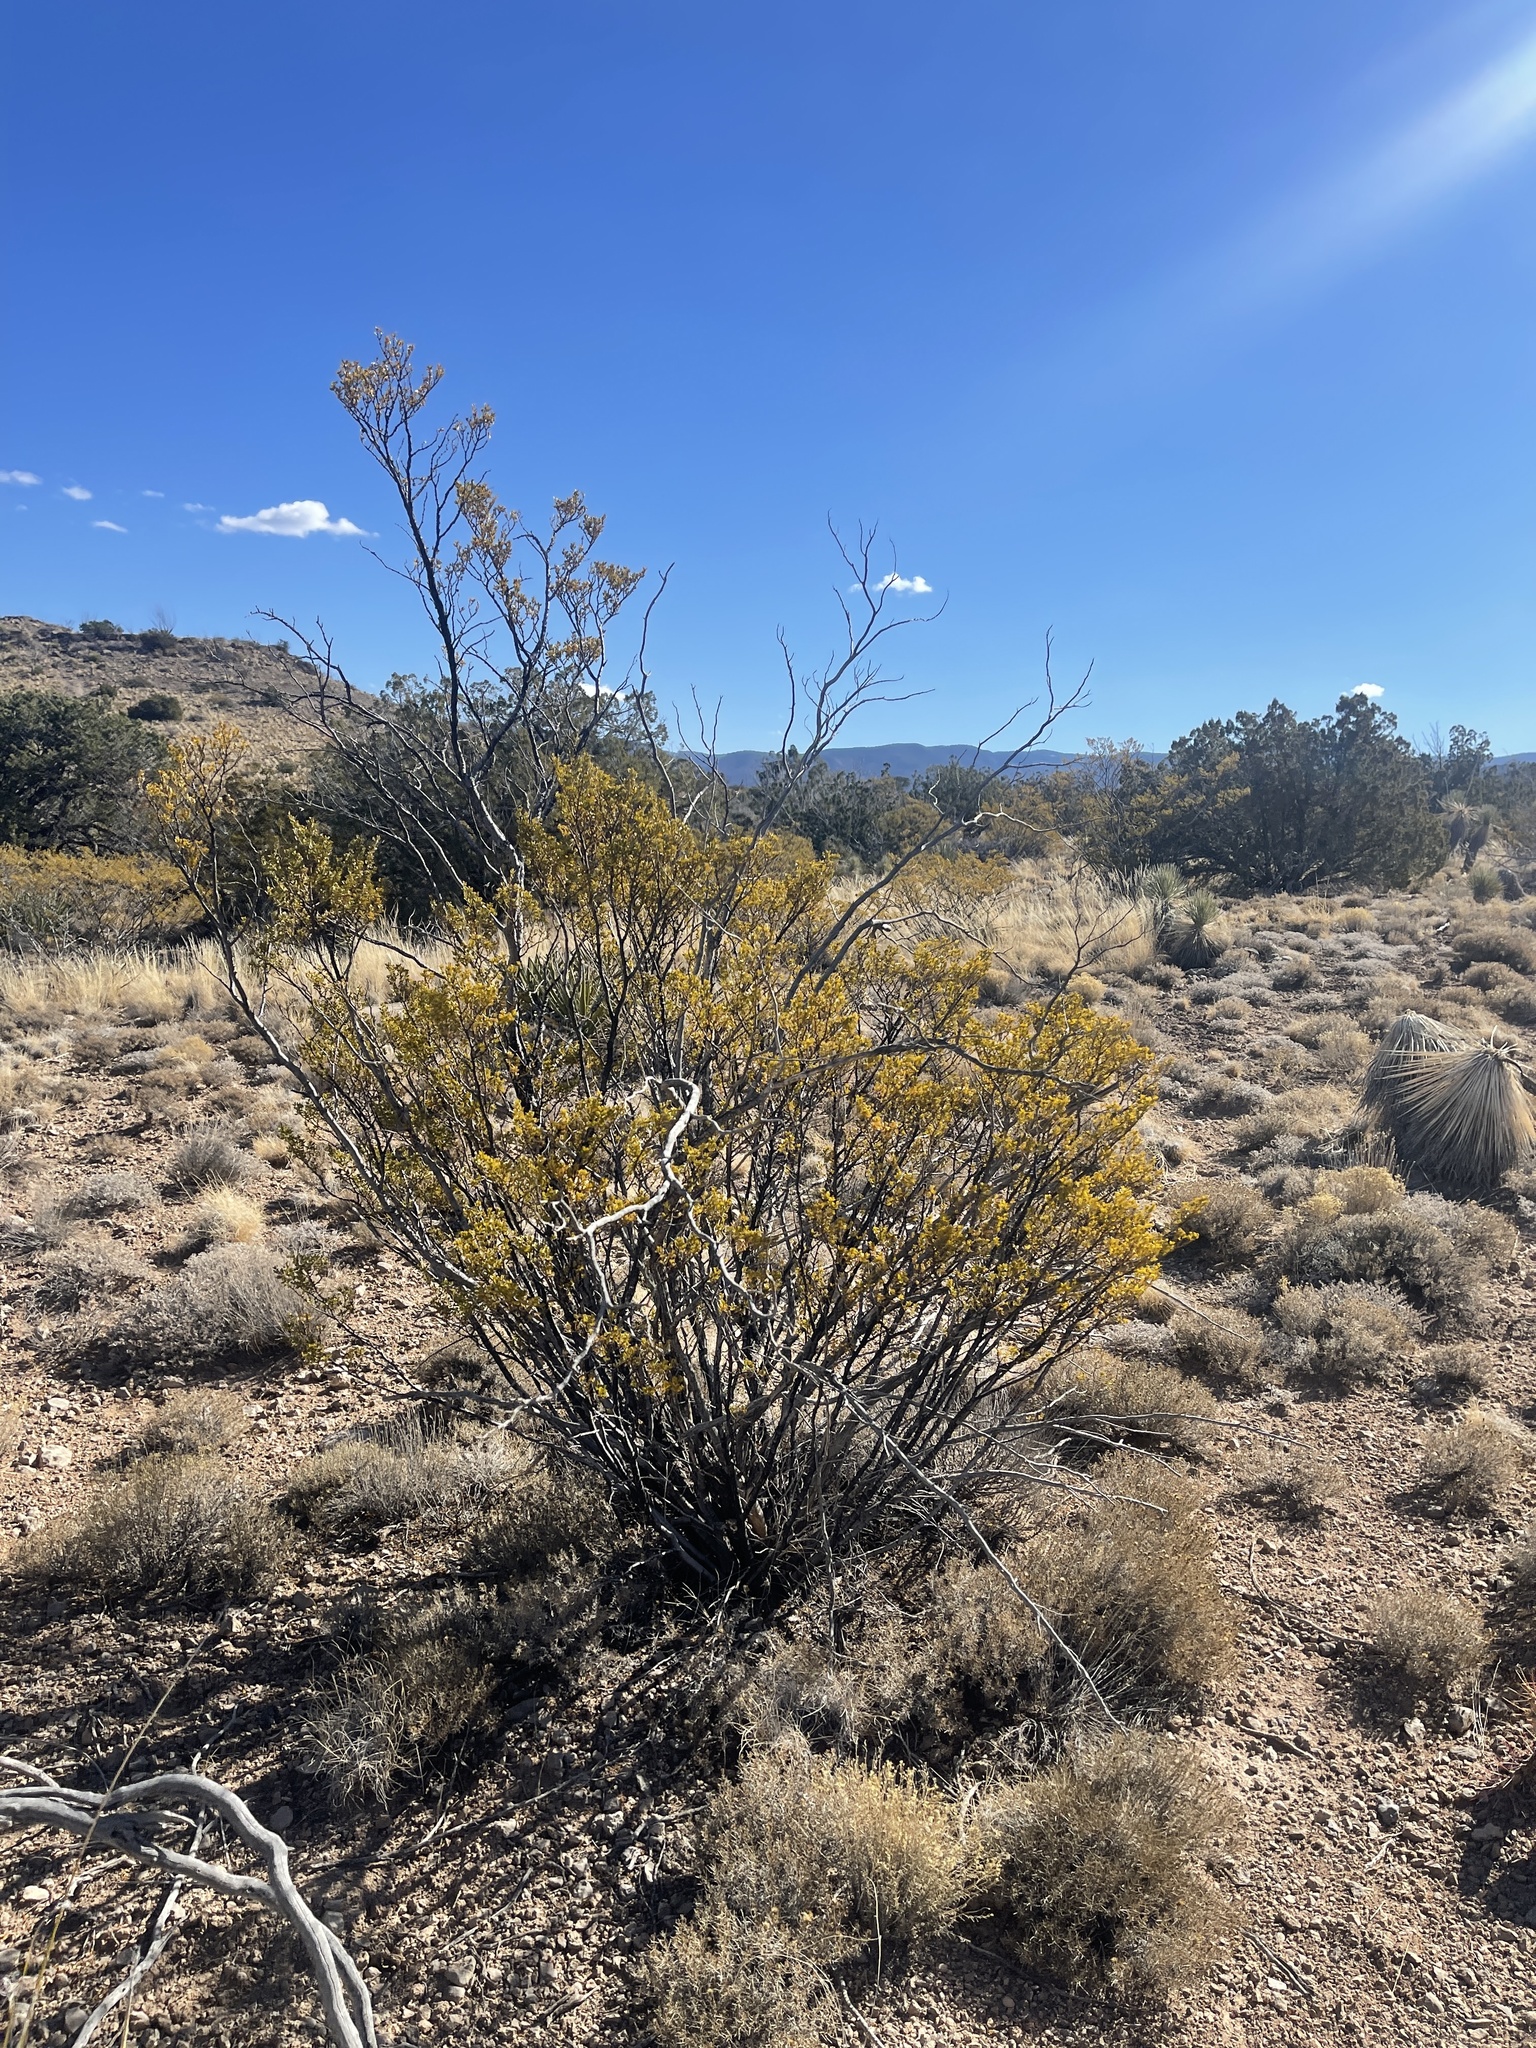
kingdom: Plantae
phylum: Tracheophyta
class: Magnoliopsida
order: Zygophyllales
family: Zygophyllaceae
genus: Larrea
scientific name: Larrea tridentata
